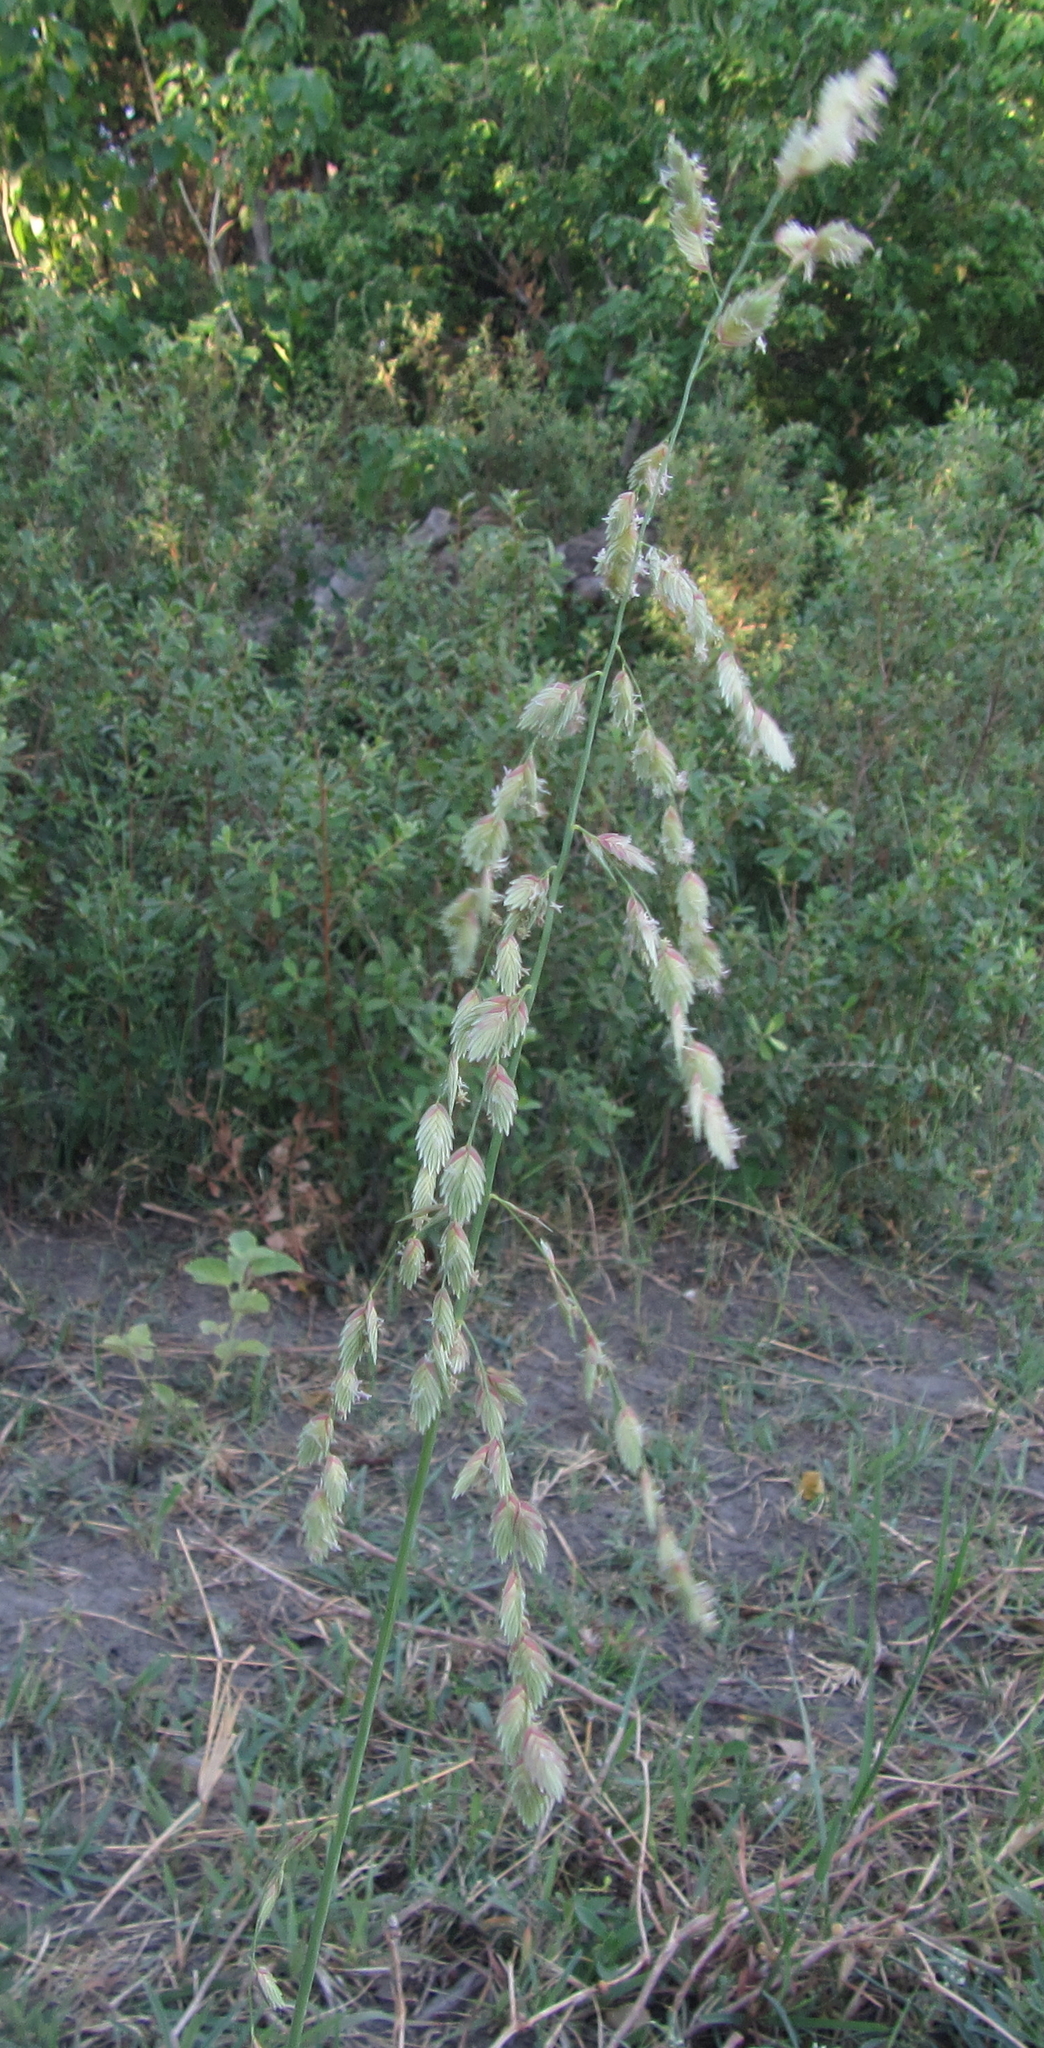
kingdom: Plantae
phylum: Tracheophyta
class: Liliopsida
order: Poales
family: Poaceae
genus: Eragrostis
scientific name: Eragrostis superba
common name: Wilman lovegrass
